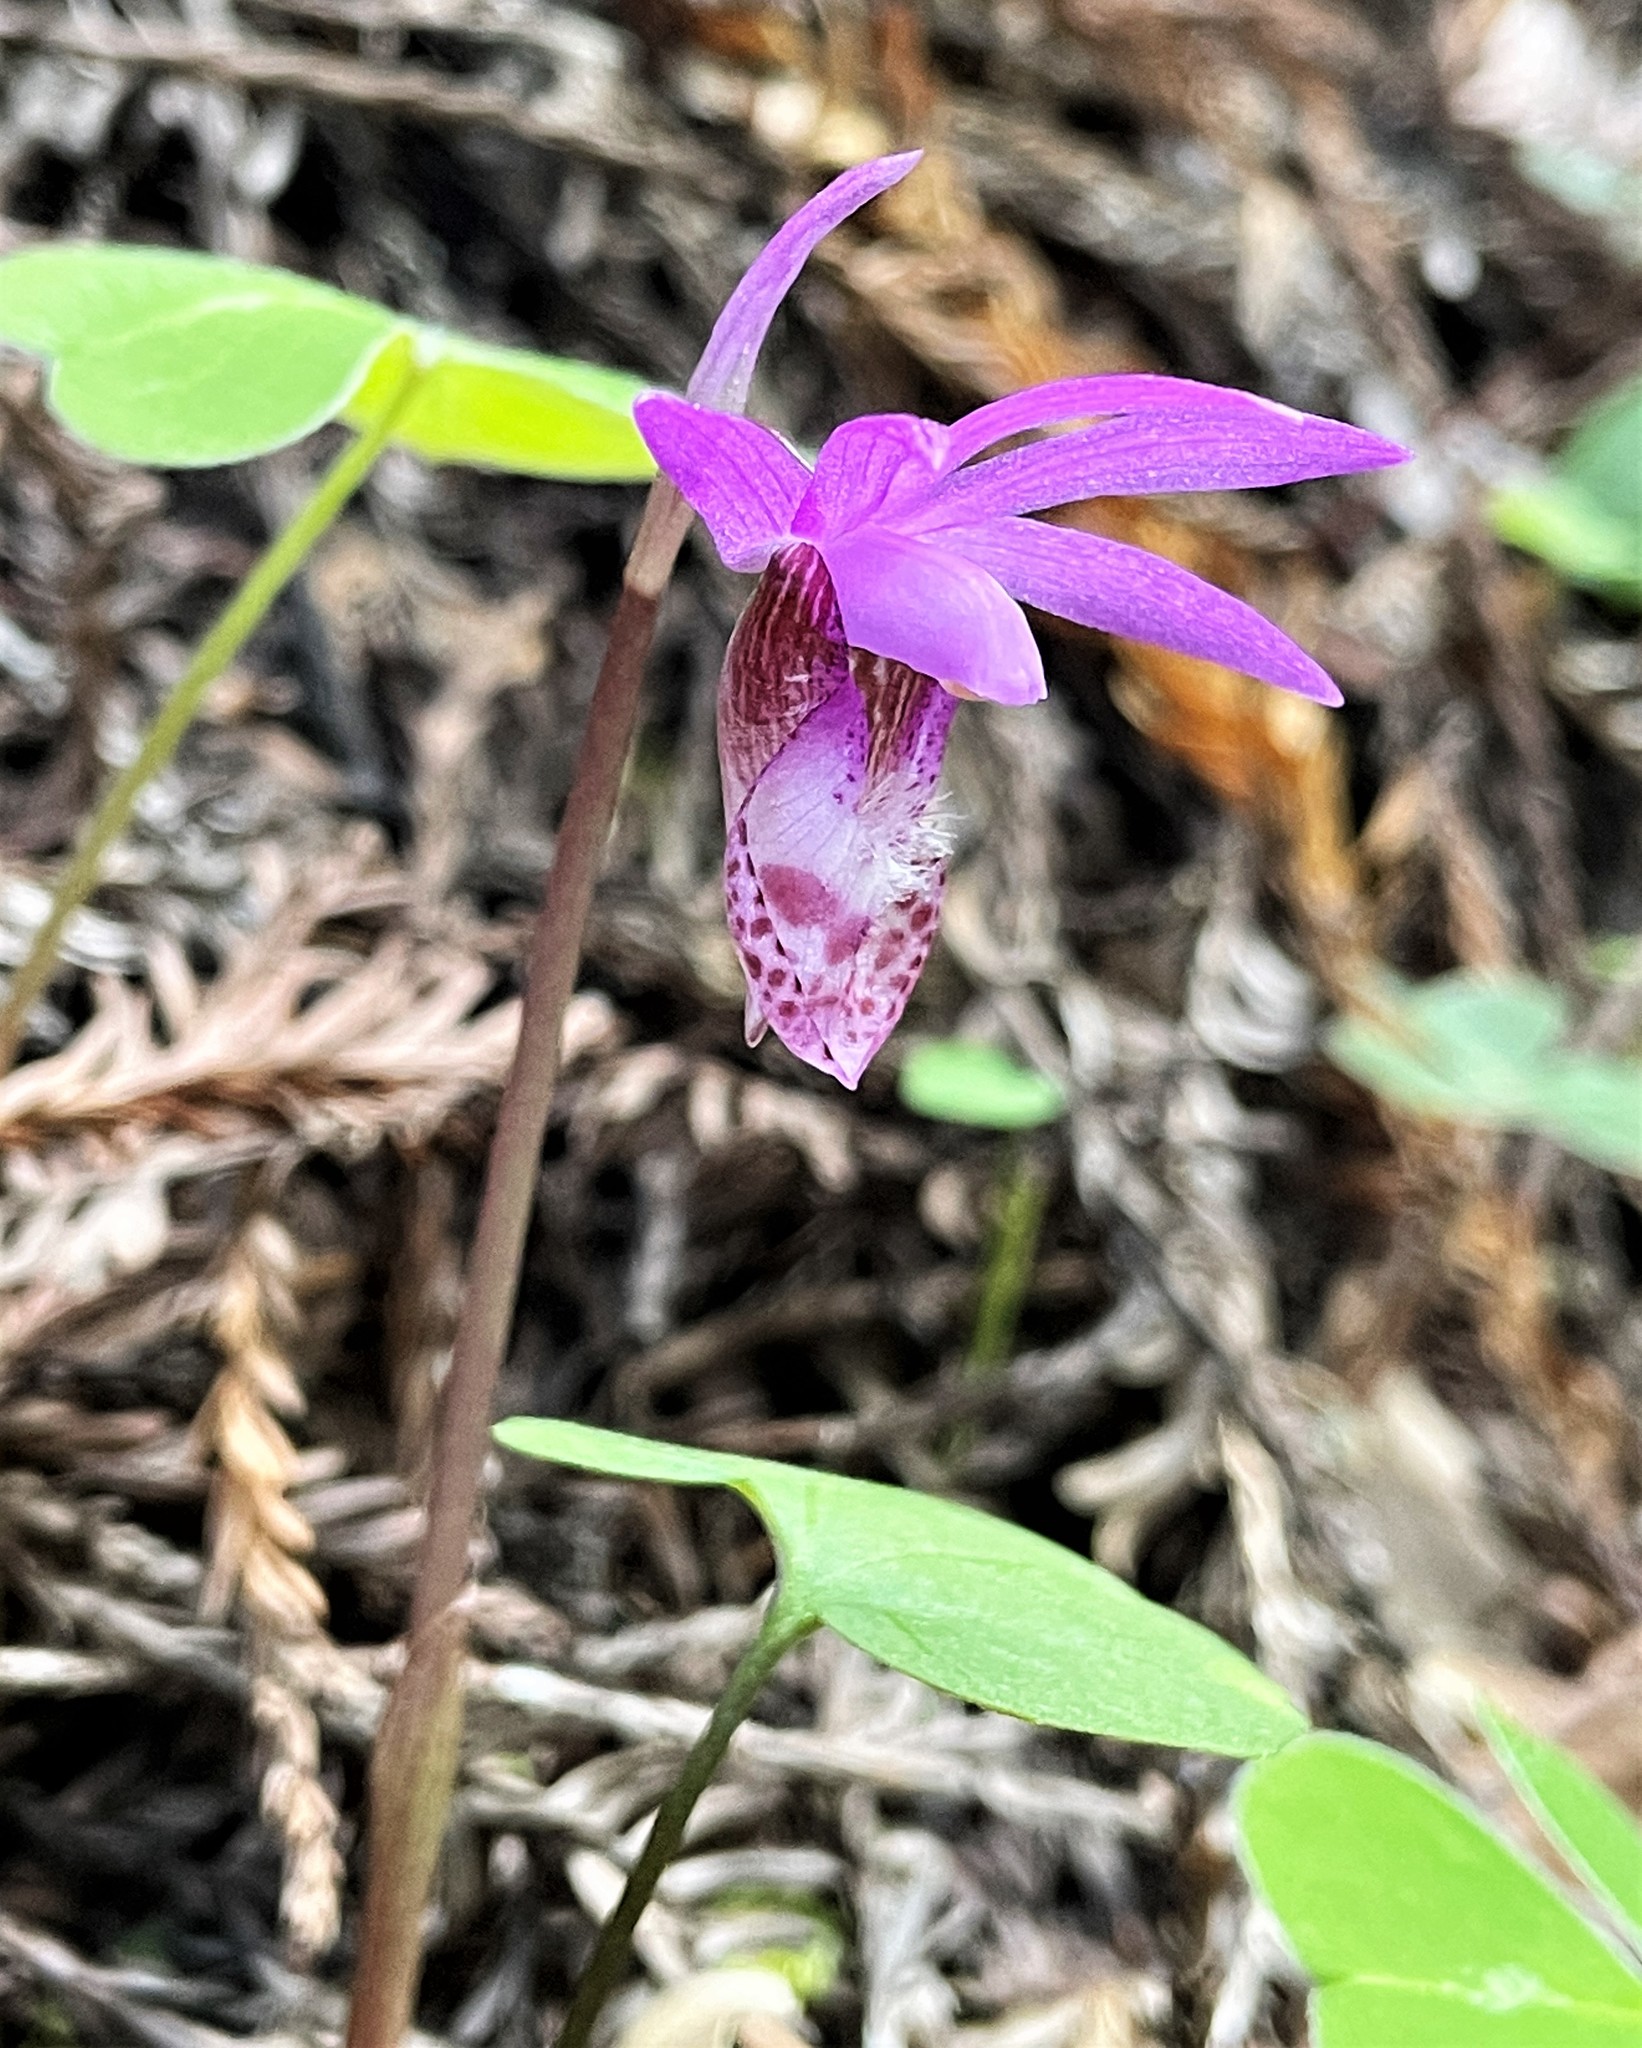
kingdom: Plantae
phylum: Tracheophyta
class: Liliopsida
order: Asparagales
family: Orchidaceae
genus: Calypso
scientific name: Calypso bulbosa
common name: Calypso
